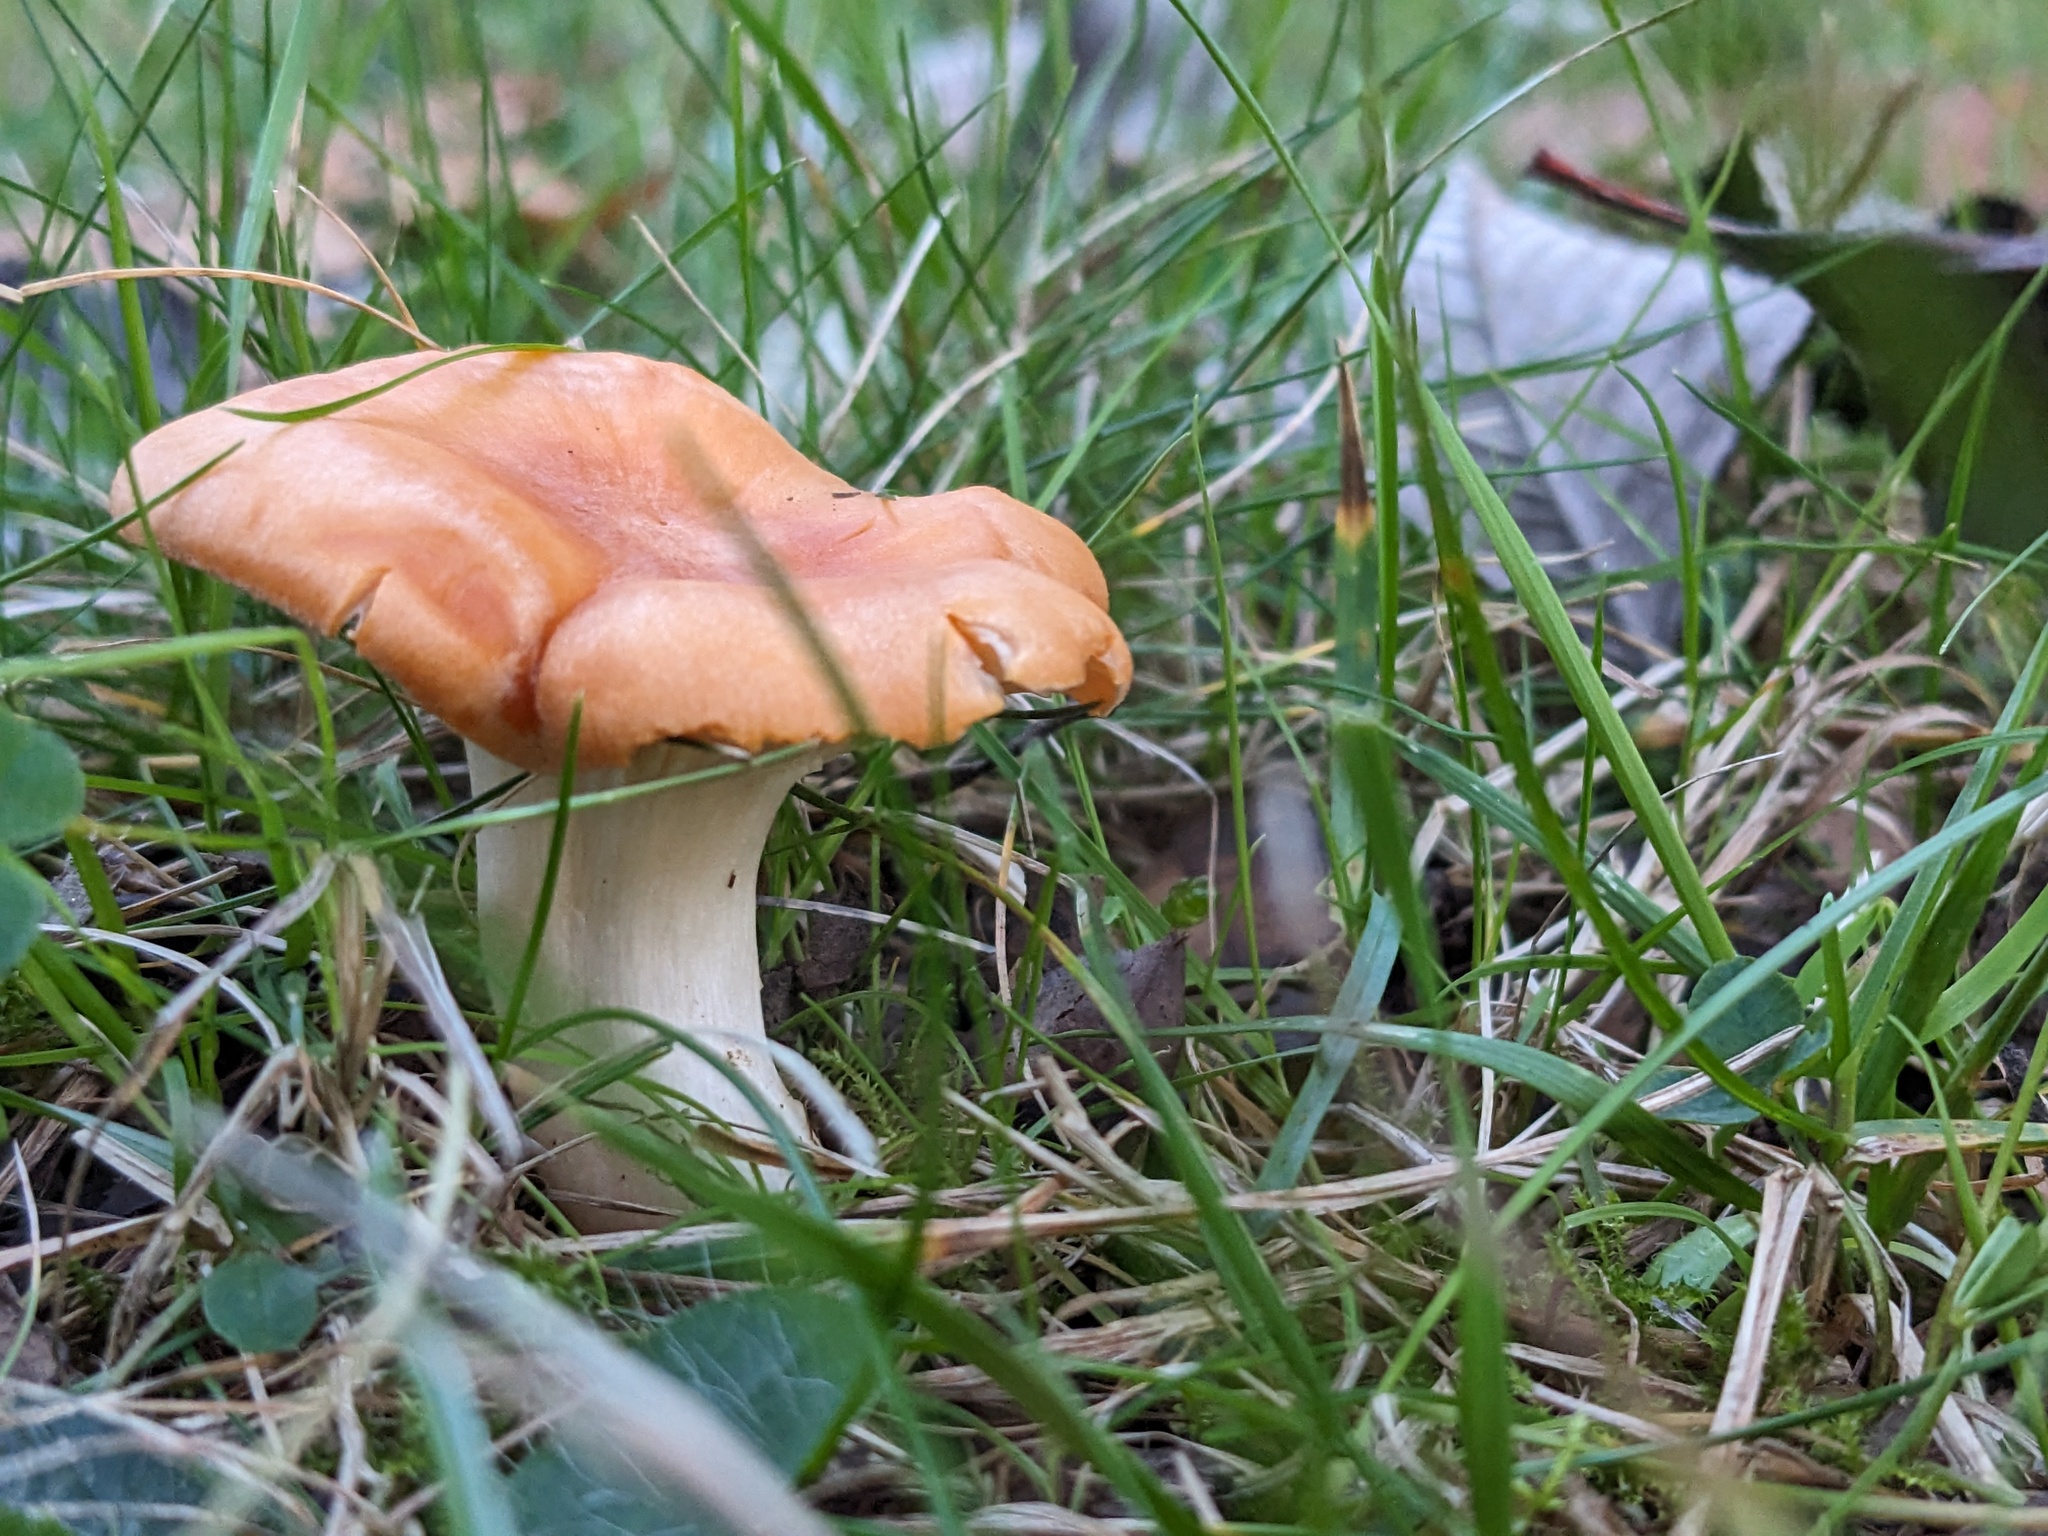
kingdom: Fungi
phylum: Basidiomycota
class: Agaricomycetes
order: Agaricales
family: Hygrophoraceae
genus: Cuphophyllus
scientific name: Cuphophyllus pratensis
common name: Meadow waxcap
